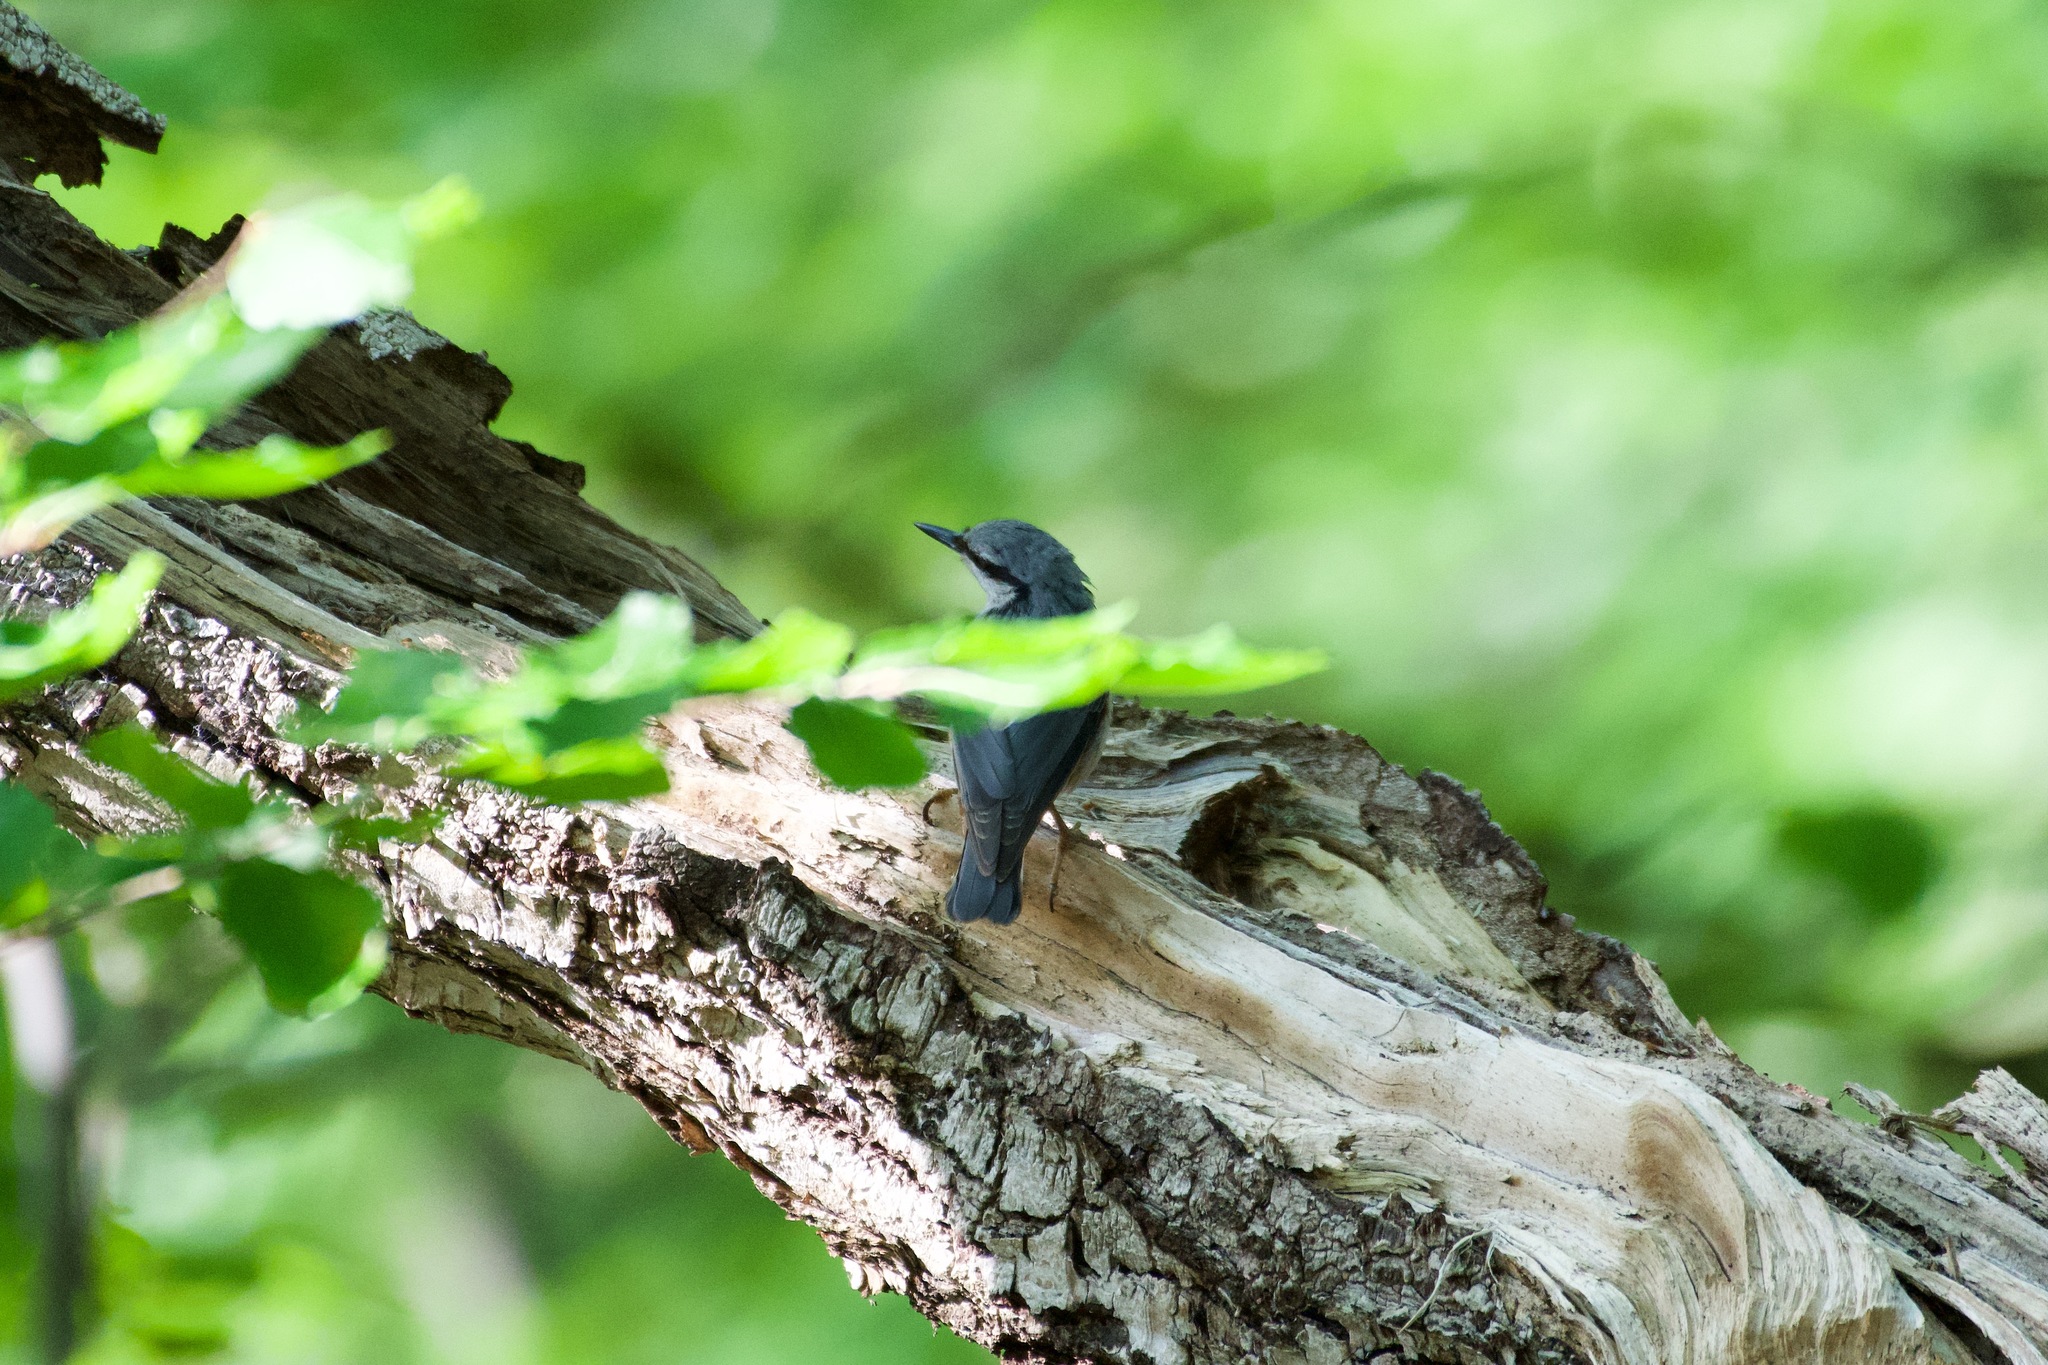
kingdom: Animalia
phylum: Chordata
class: Aves
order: Passeriformes
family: Sittidae
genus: Sitta
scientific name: Sitta europaea
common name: Eurasian nuthatch
